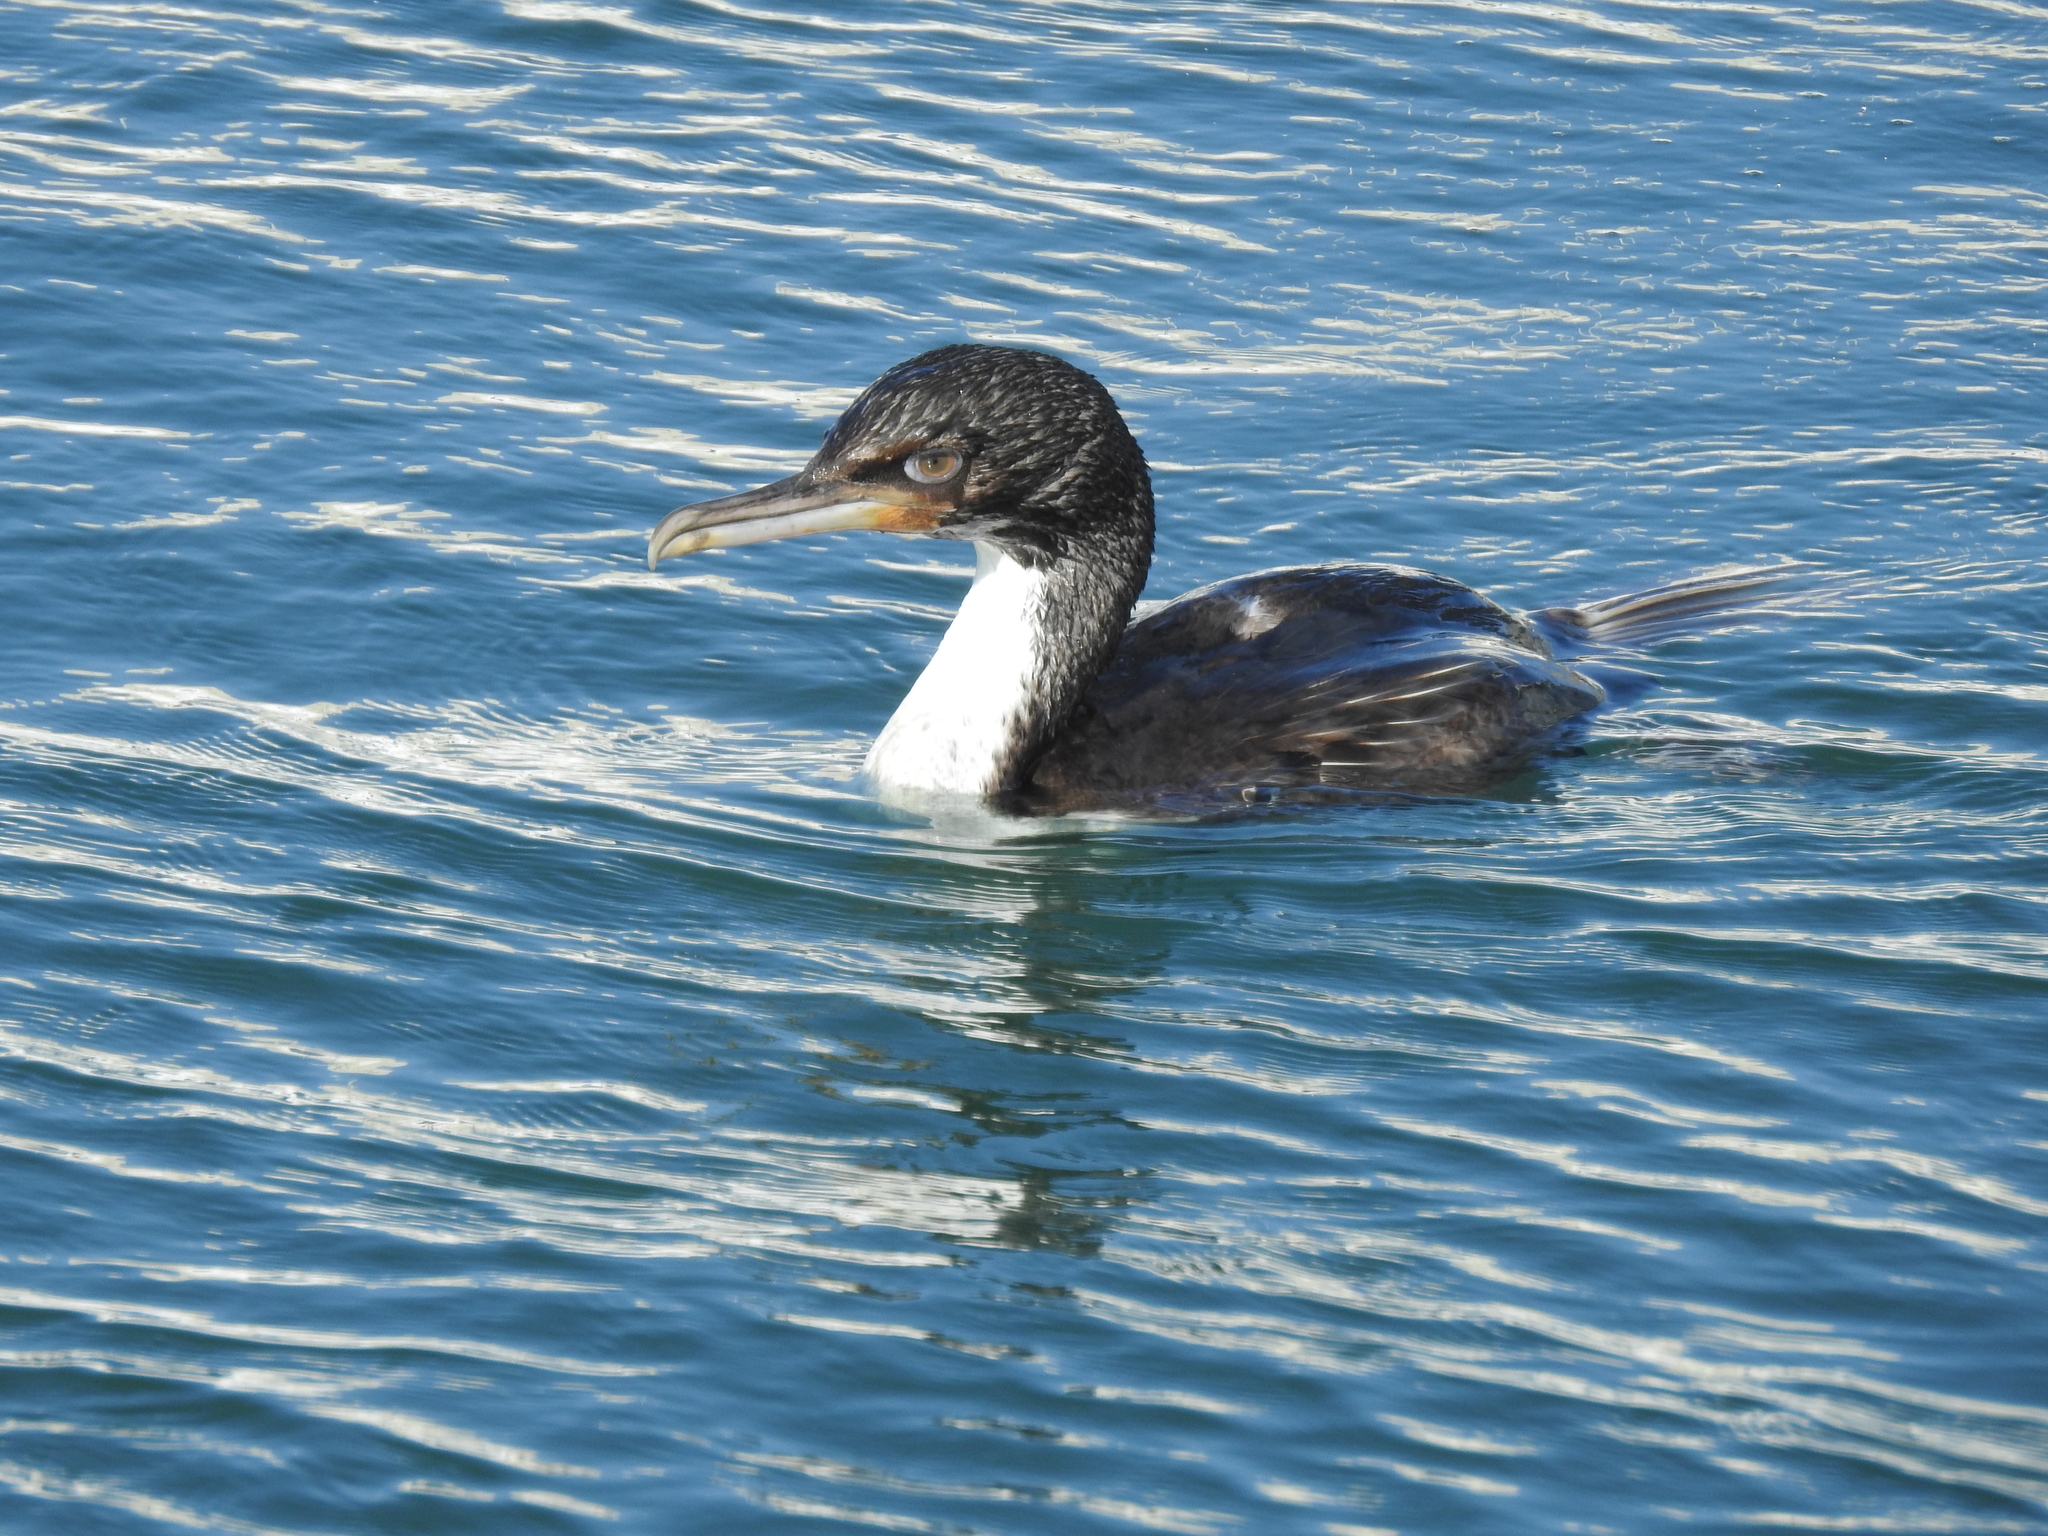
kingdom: Animalia
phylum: Chordata
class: Aves
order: Suliformes
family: Phalacrocoracidae
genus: Leucocarbo
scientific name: Leucocarbo chalconotus
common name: Stewart shag
